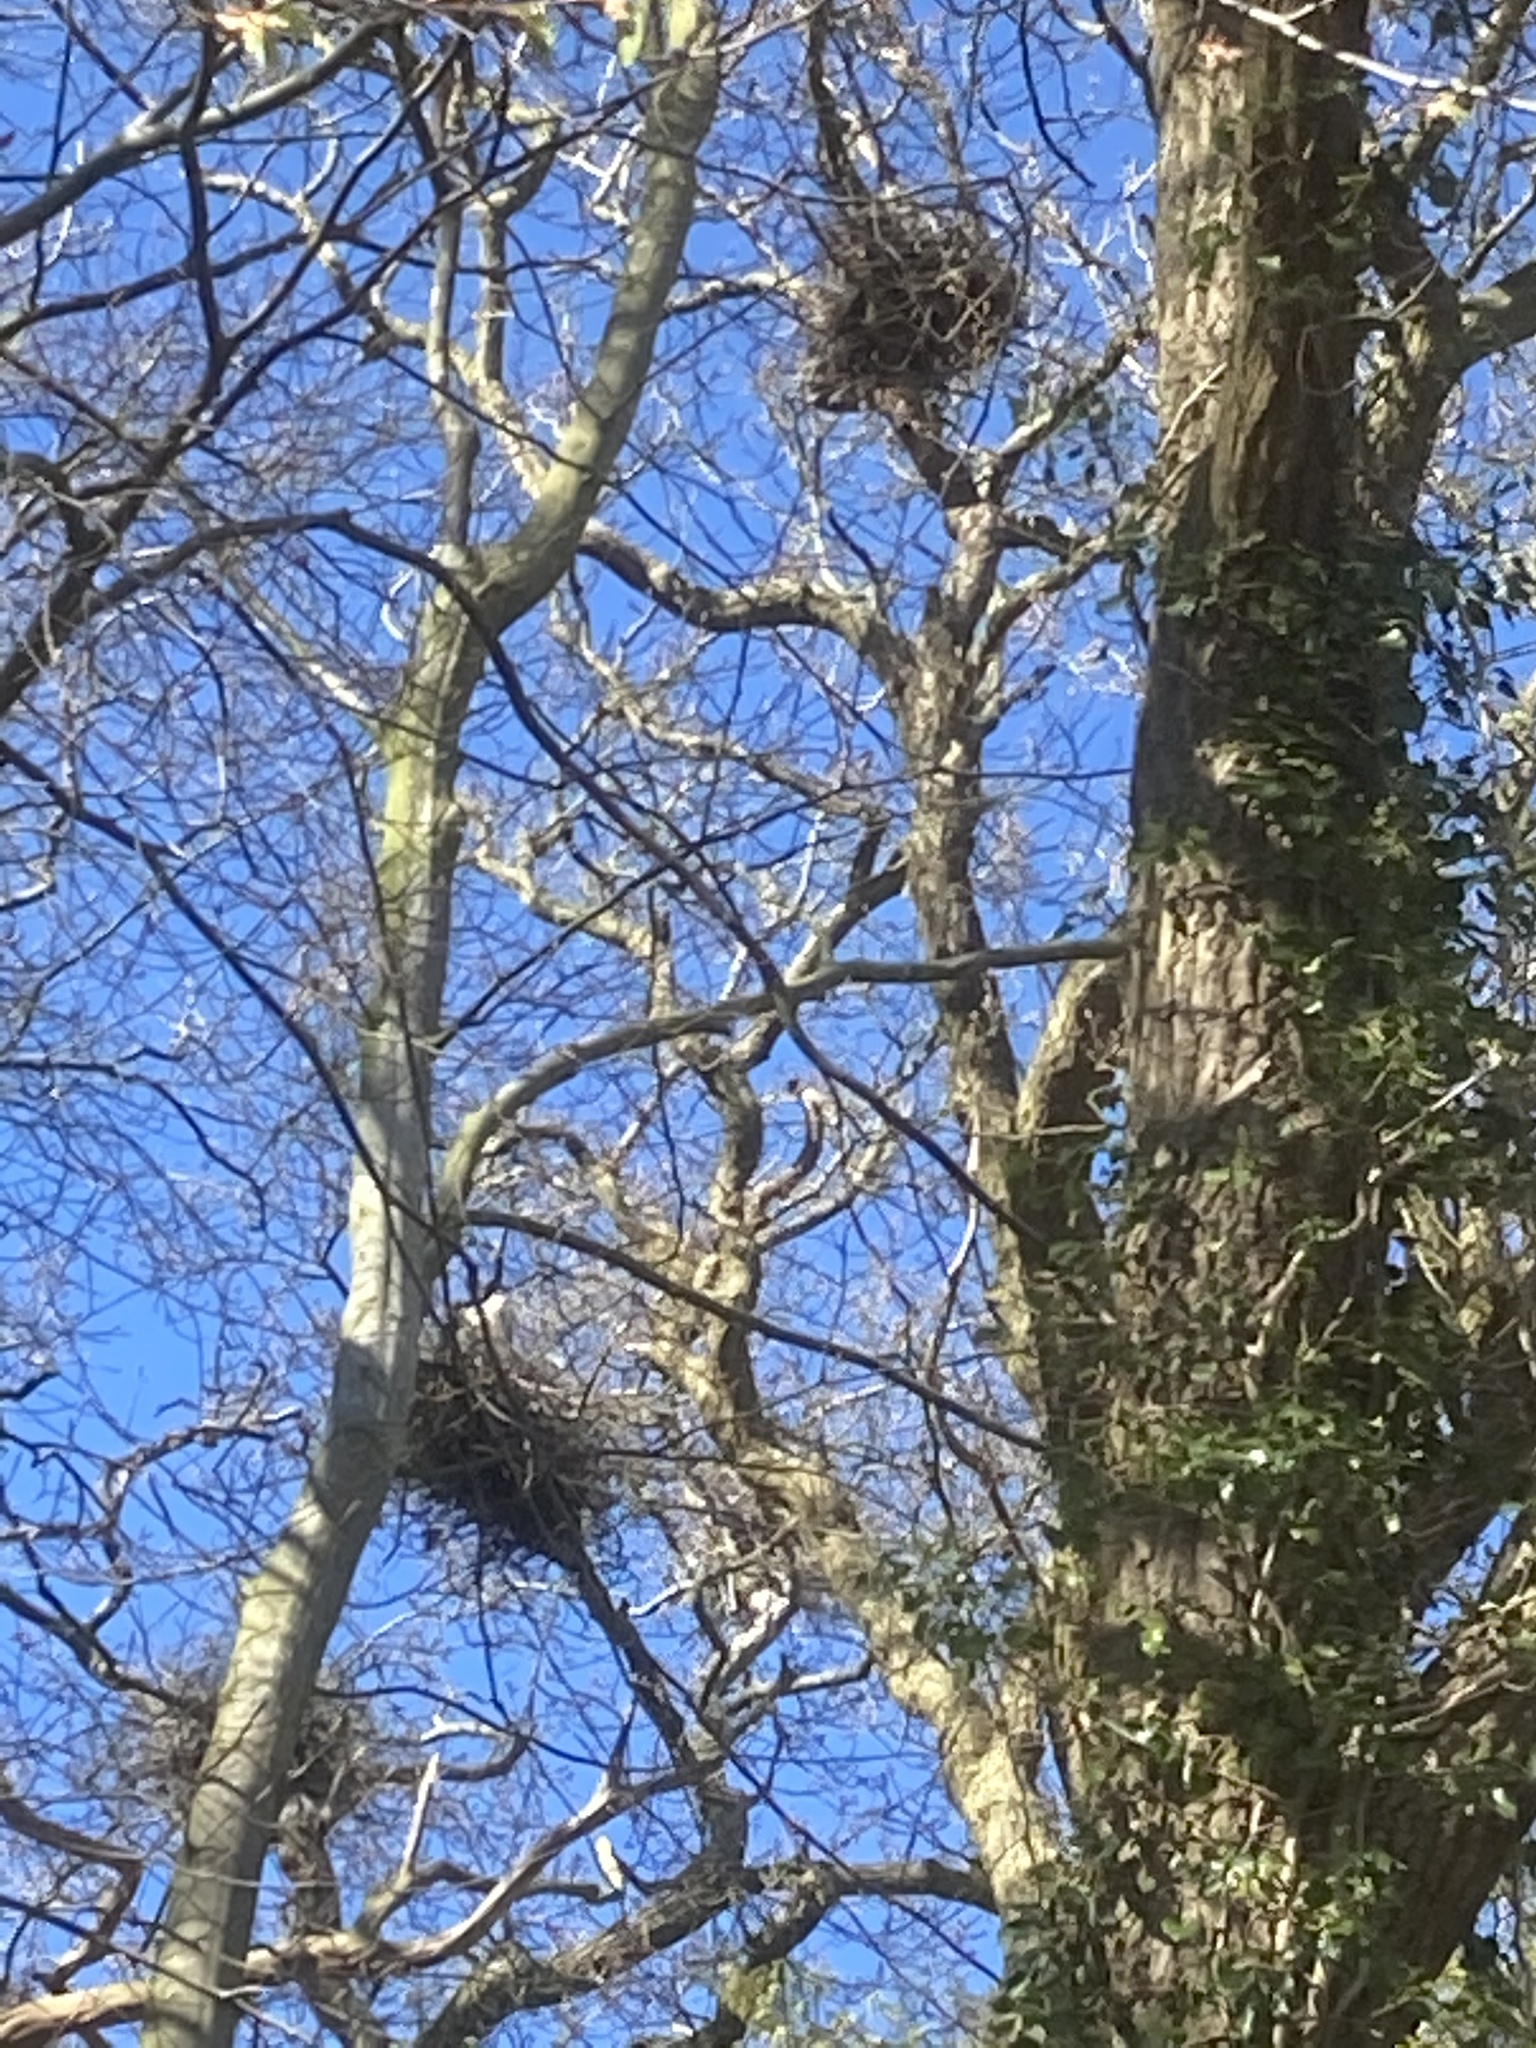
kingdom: Animalia
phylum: Chordata
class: Aves
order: Passeriformes
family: Corvidae
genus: Corvus
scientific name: Corvus frugilegus
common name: Rook
